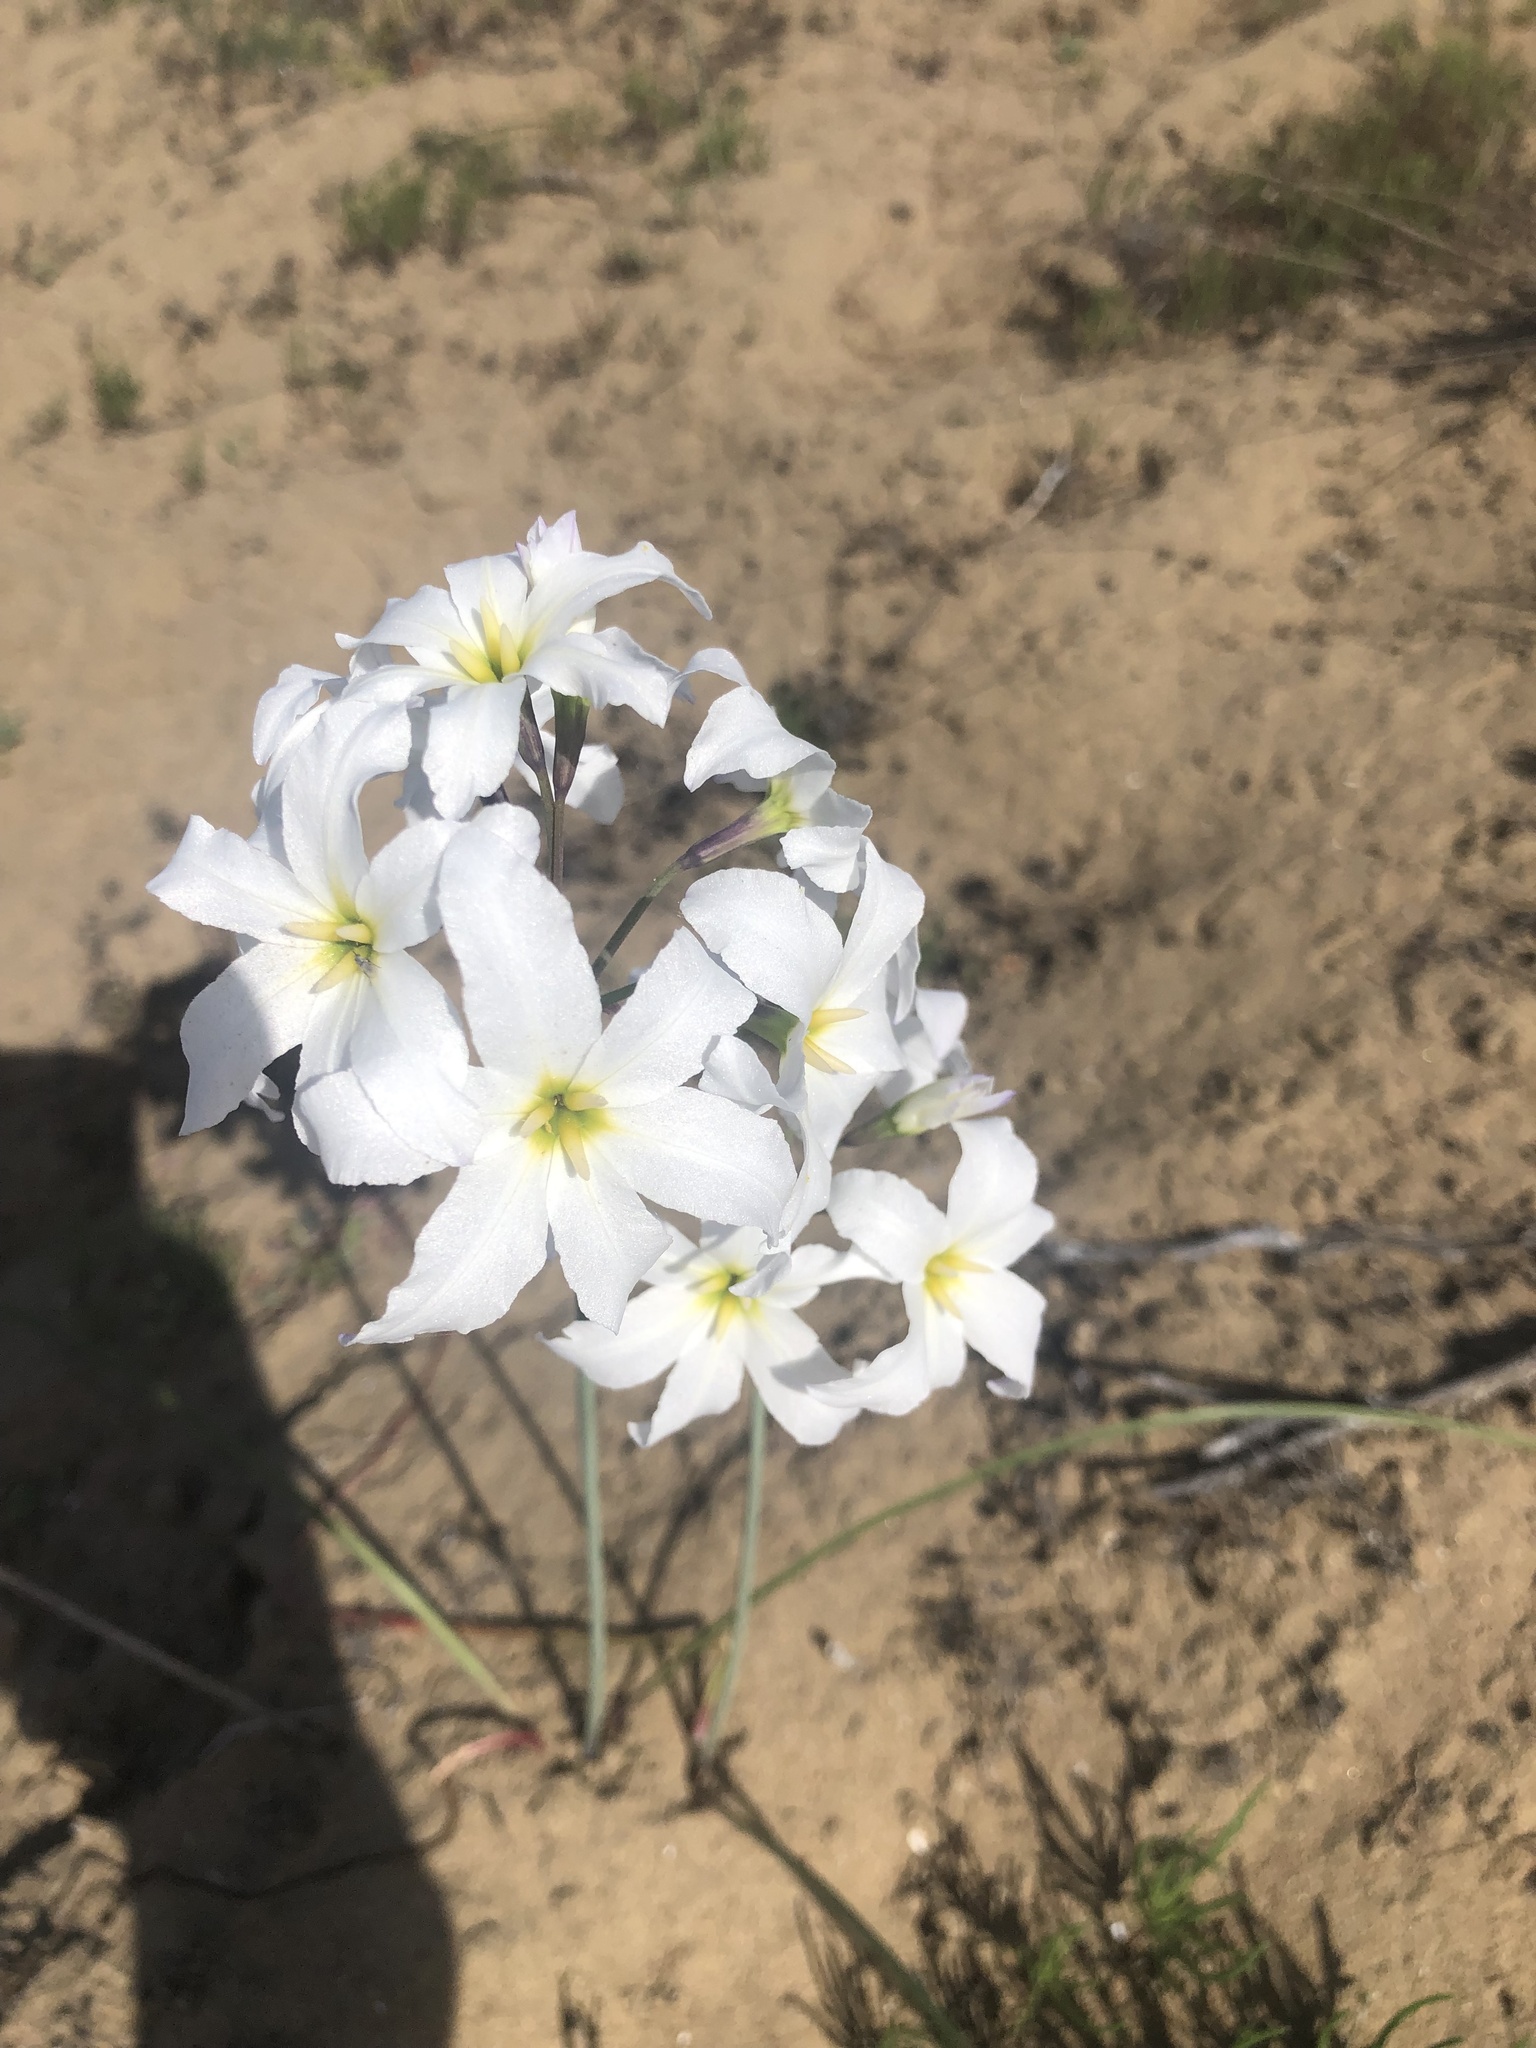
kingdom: Plantae
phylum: Tracheophyta
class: Liliopsida
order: Asparagales
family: Amaryllidaceae
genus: Leucocoryne
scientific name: Leucocoryne ixioides
